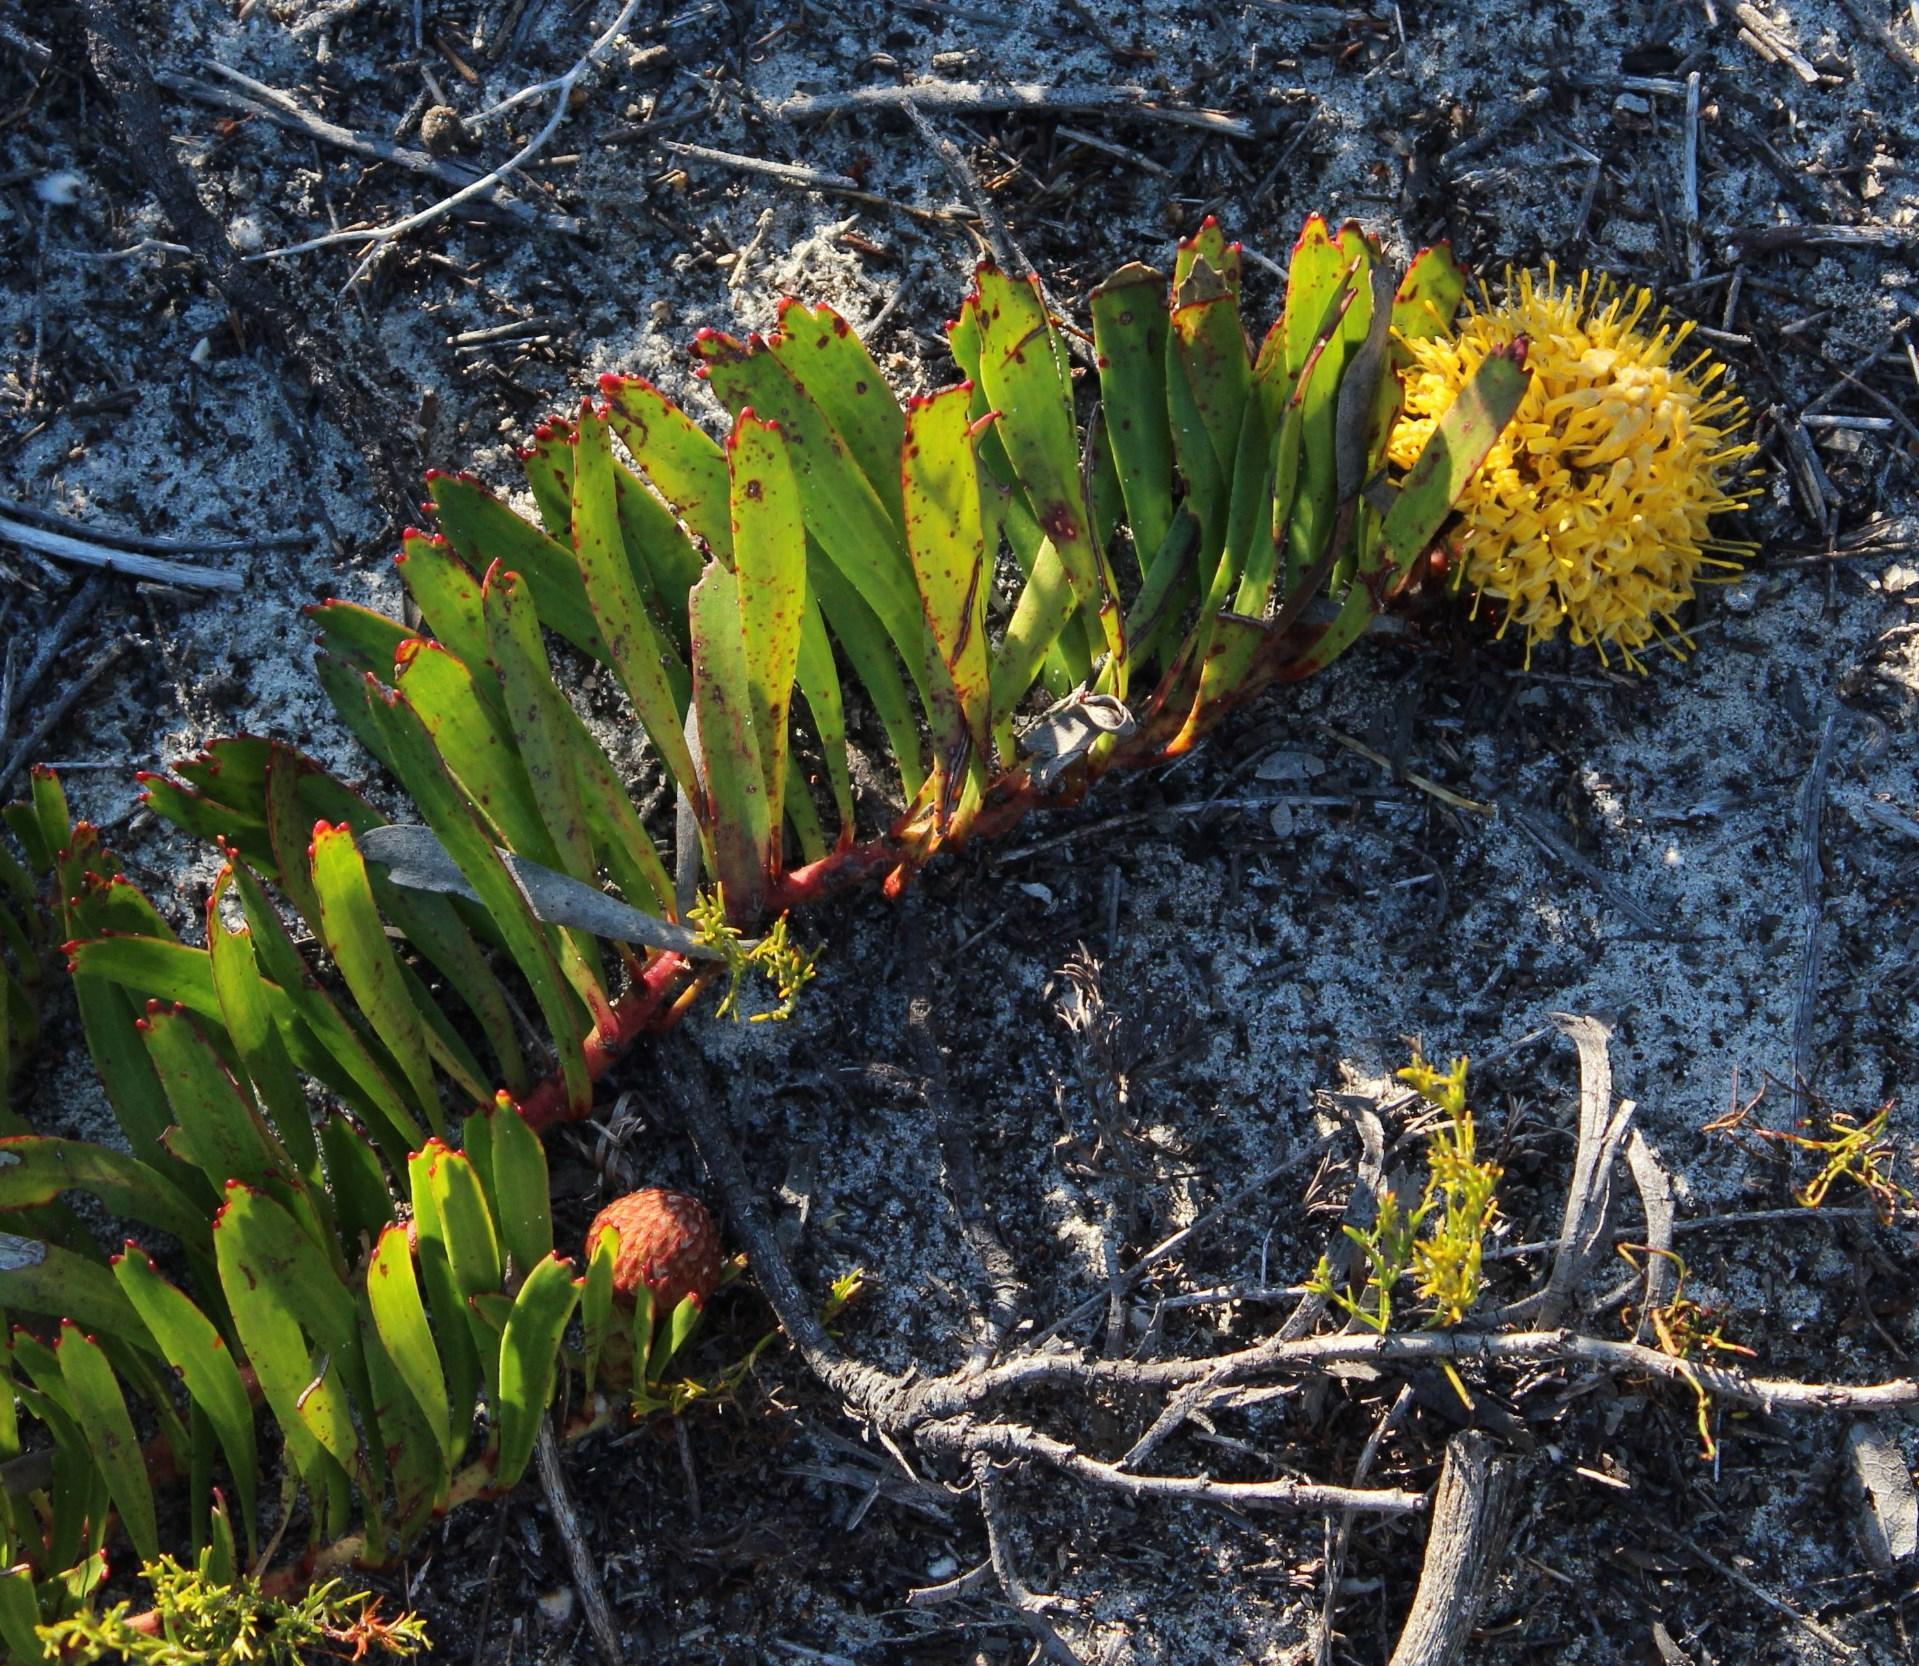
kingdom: Plantae
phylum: Tracheophyta
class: Magnoliopsida
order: Proteales
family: Proteaceae
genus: Leucospermum
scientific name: Leucospermum hypophyllocarpodendron
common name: Snakestem pincushion
